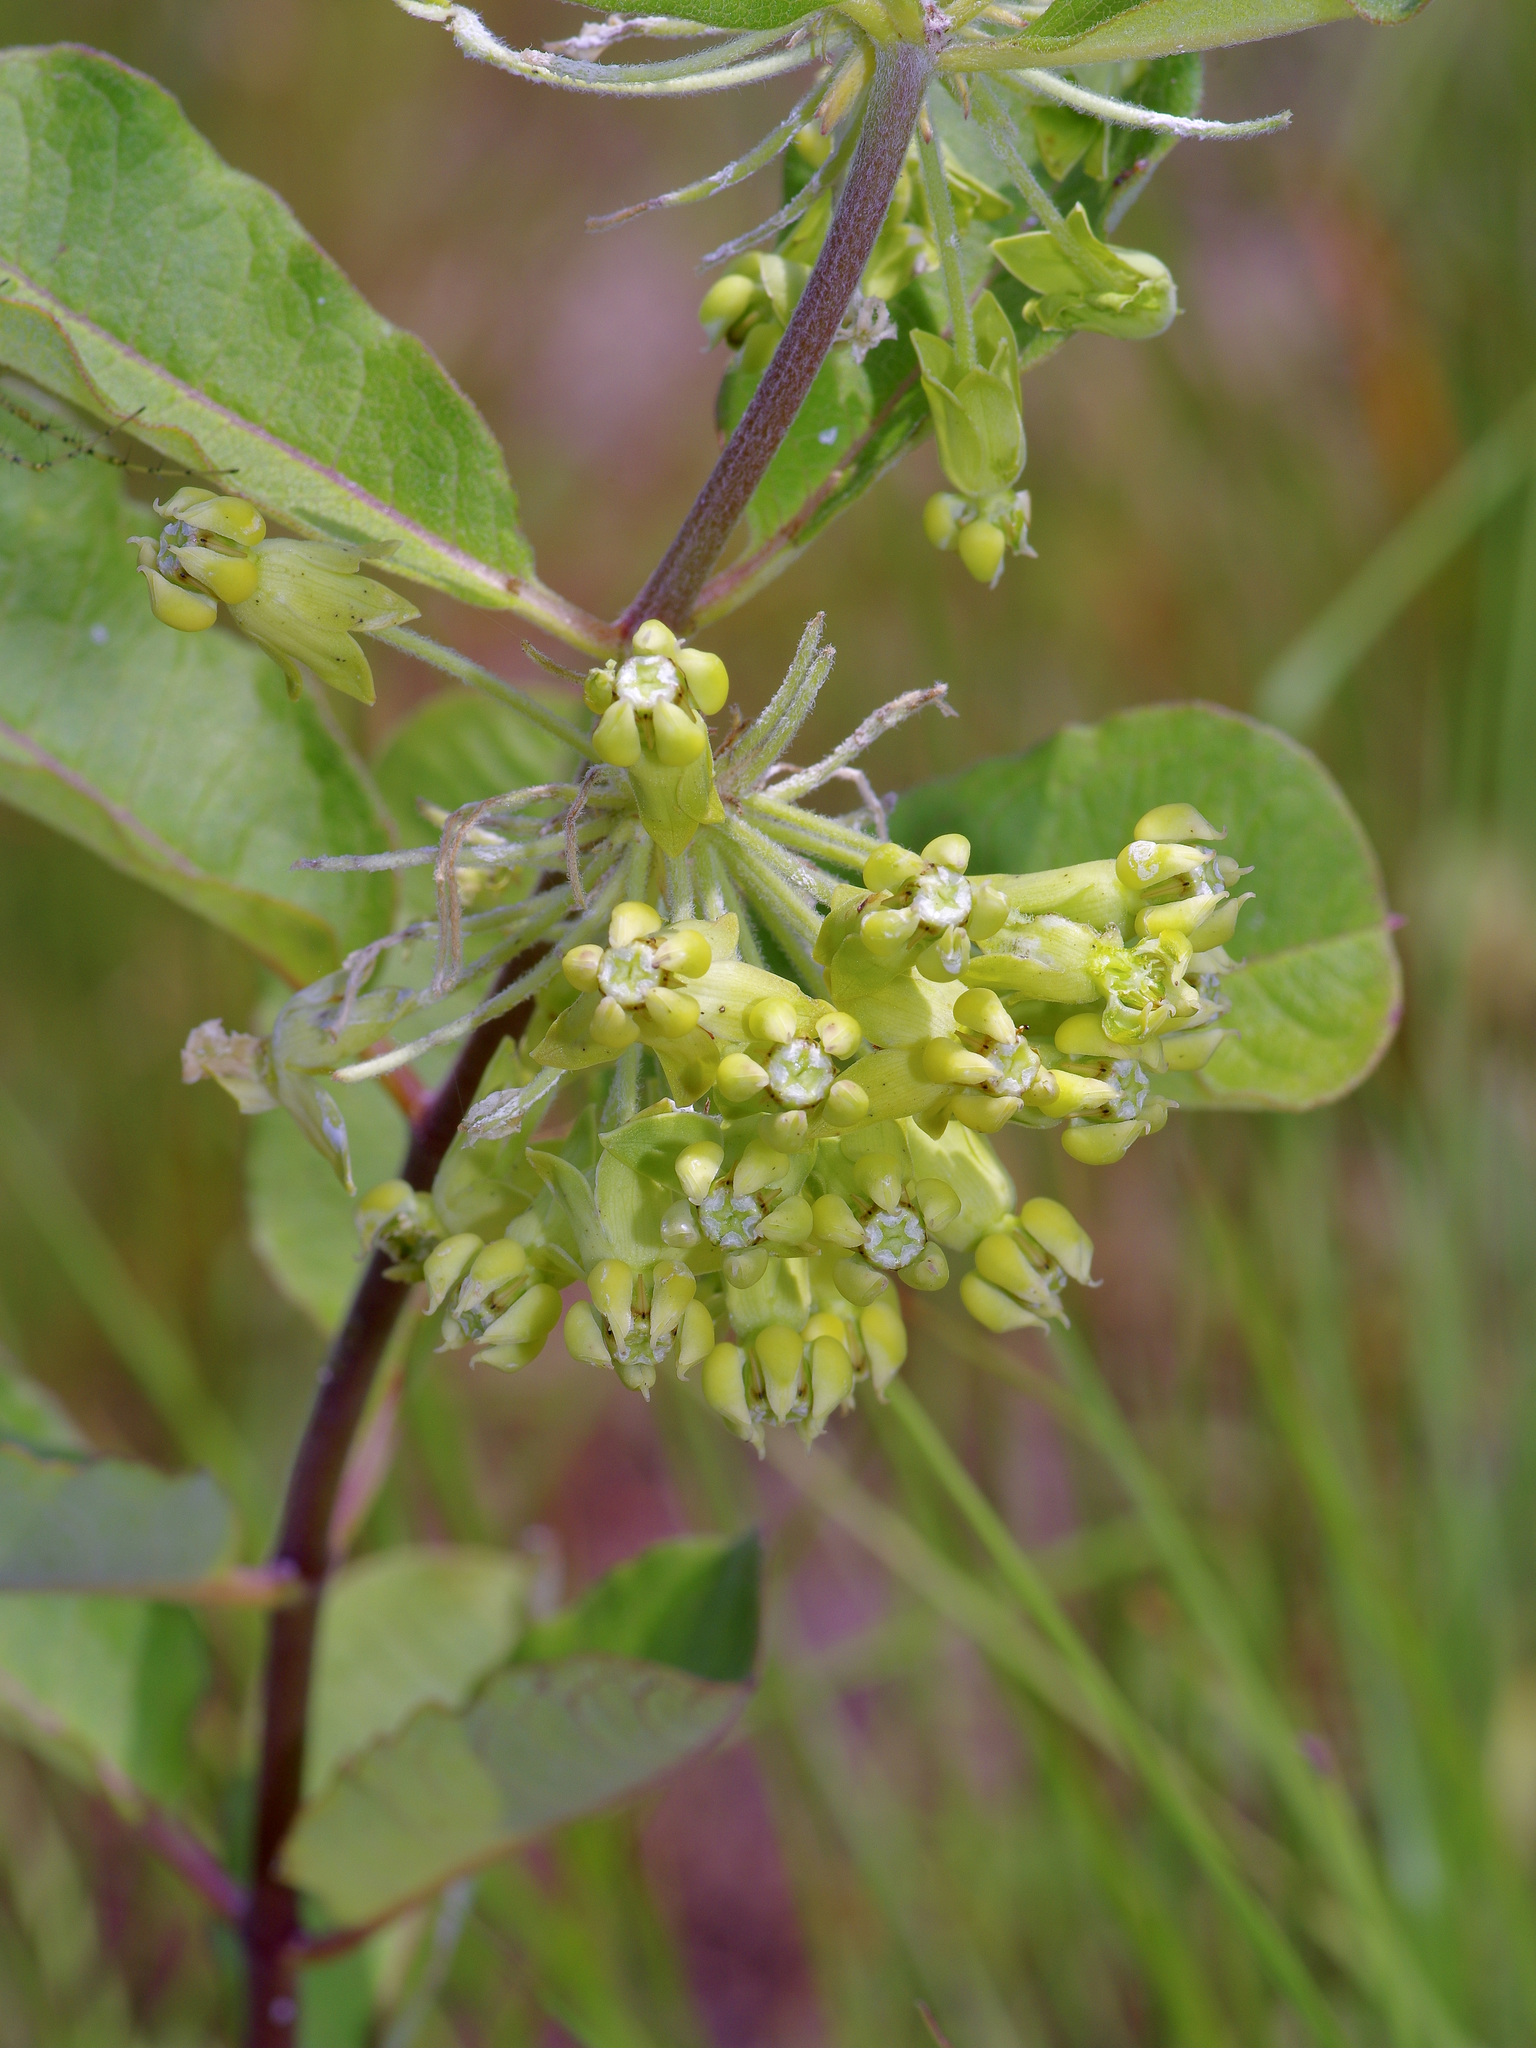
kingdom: Plantae
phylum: Tracheophyta
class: Magnoliopsida
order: Gentianales
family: Apocynaceae
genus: Asclepias
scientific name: Asclepias tomentosa
